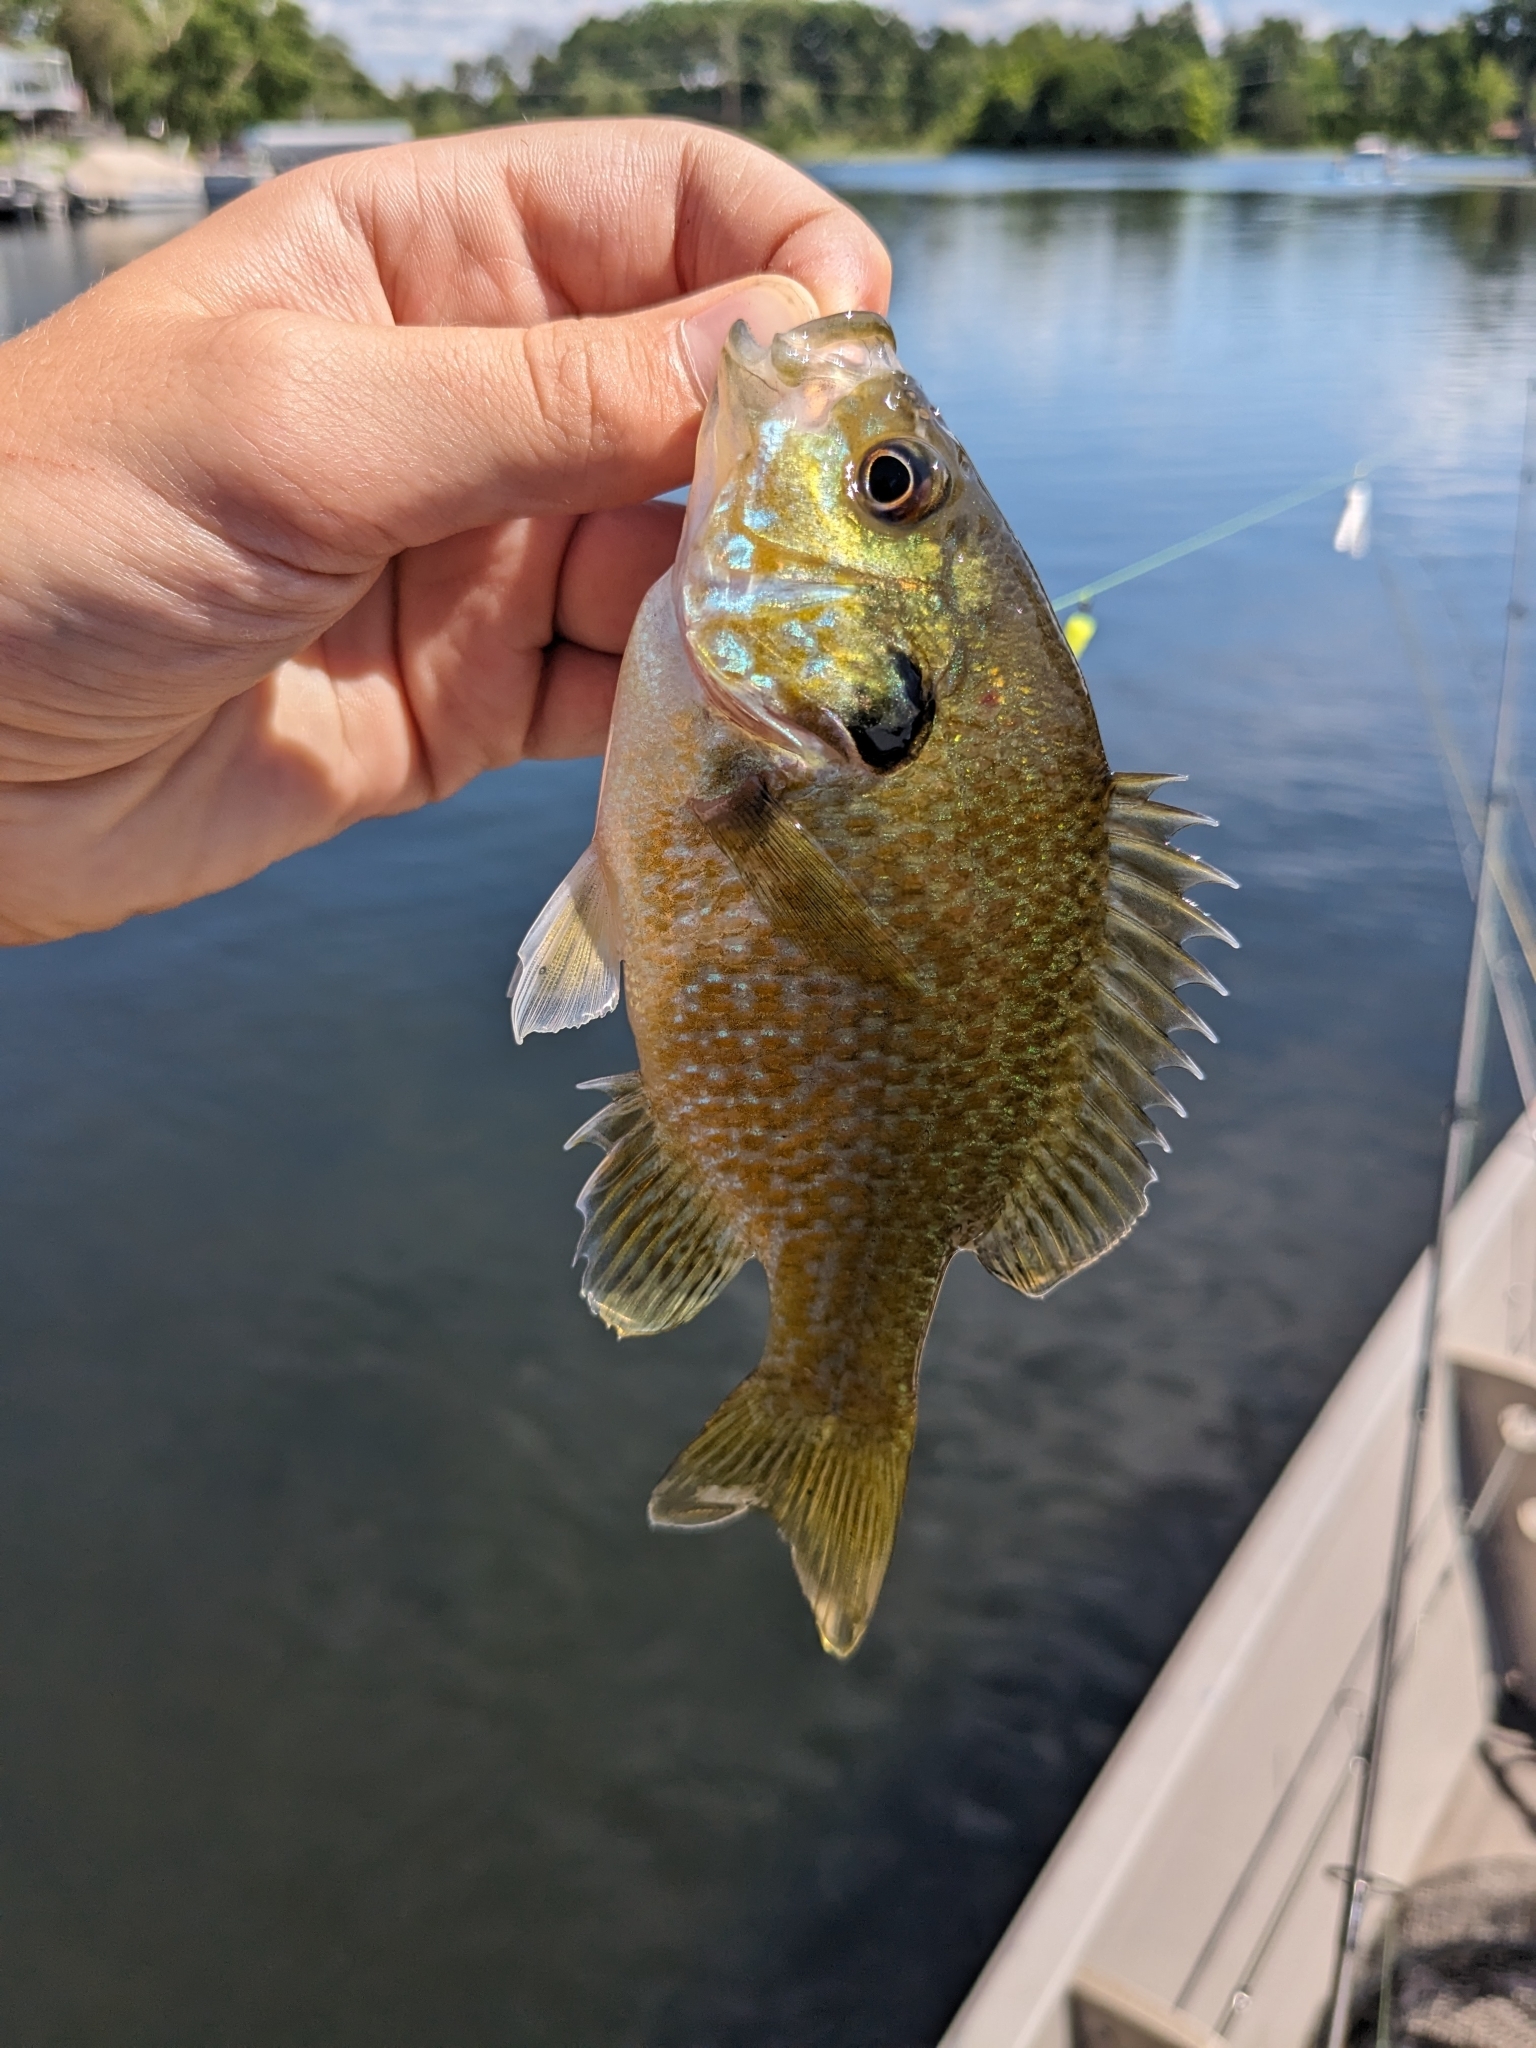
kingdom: Animalia
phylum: Chordata
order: Perciformes
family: Centrarchidae
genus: Lepomis
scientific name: Lepomis
